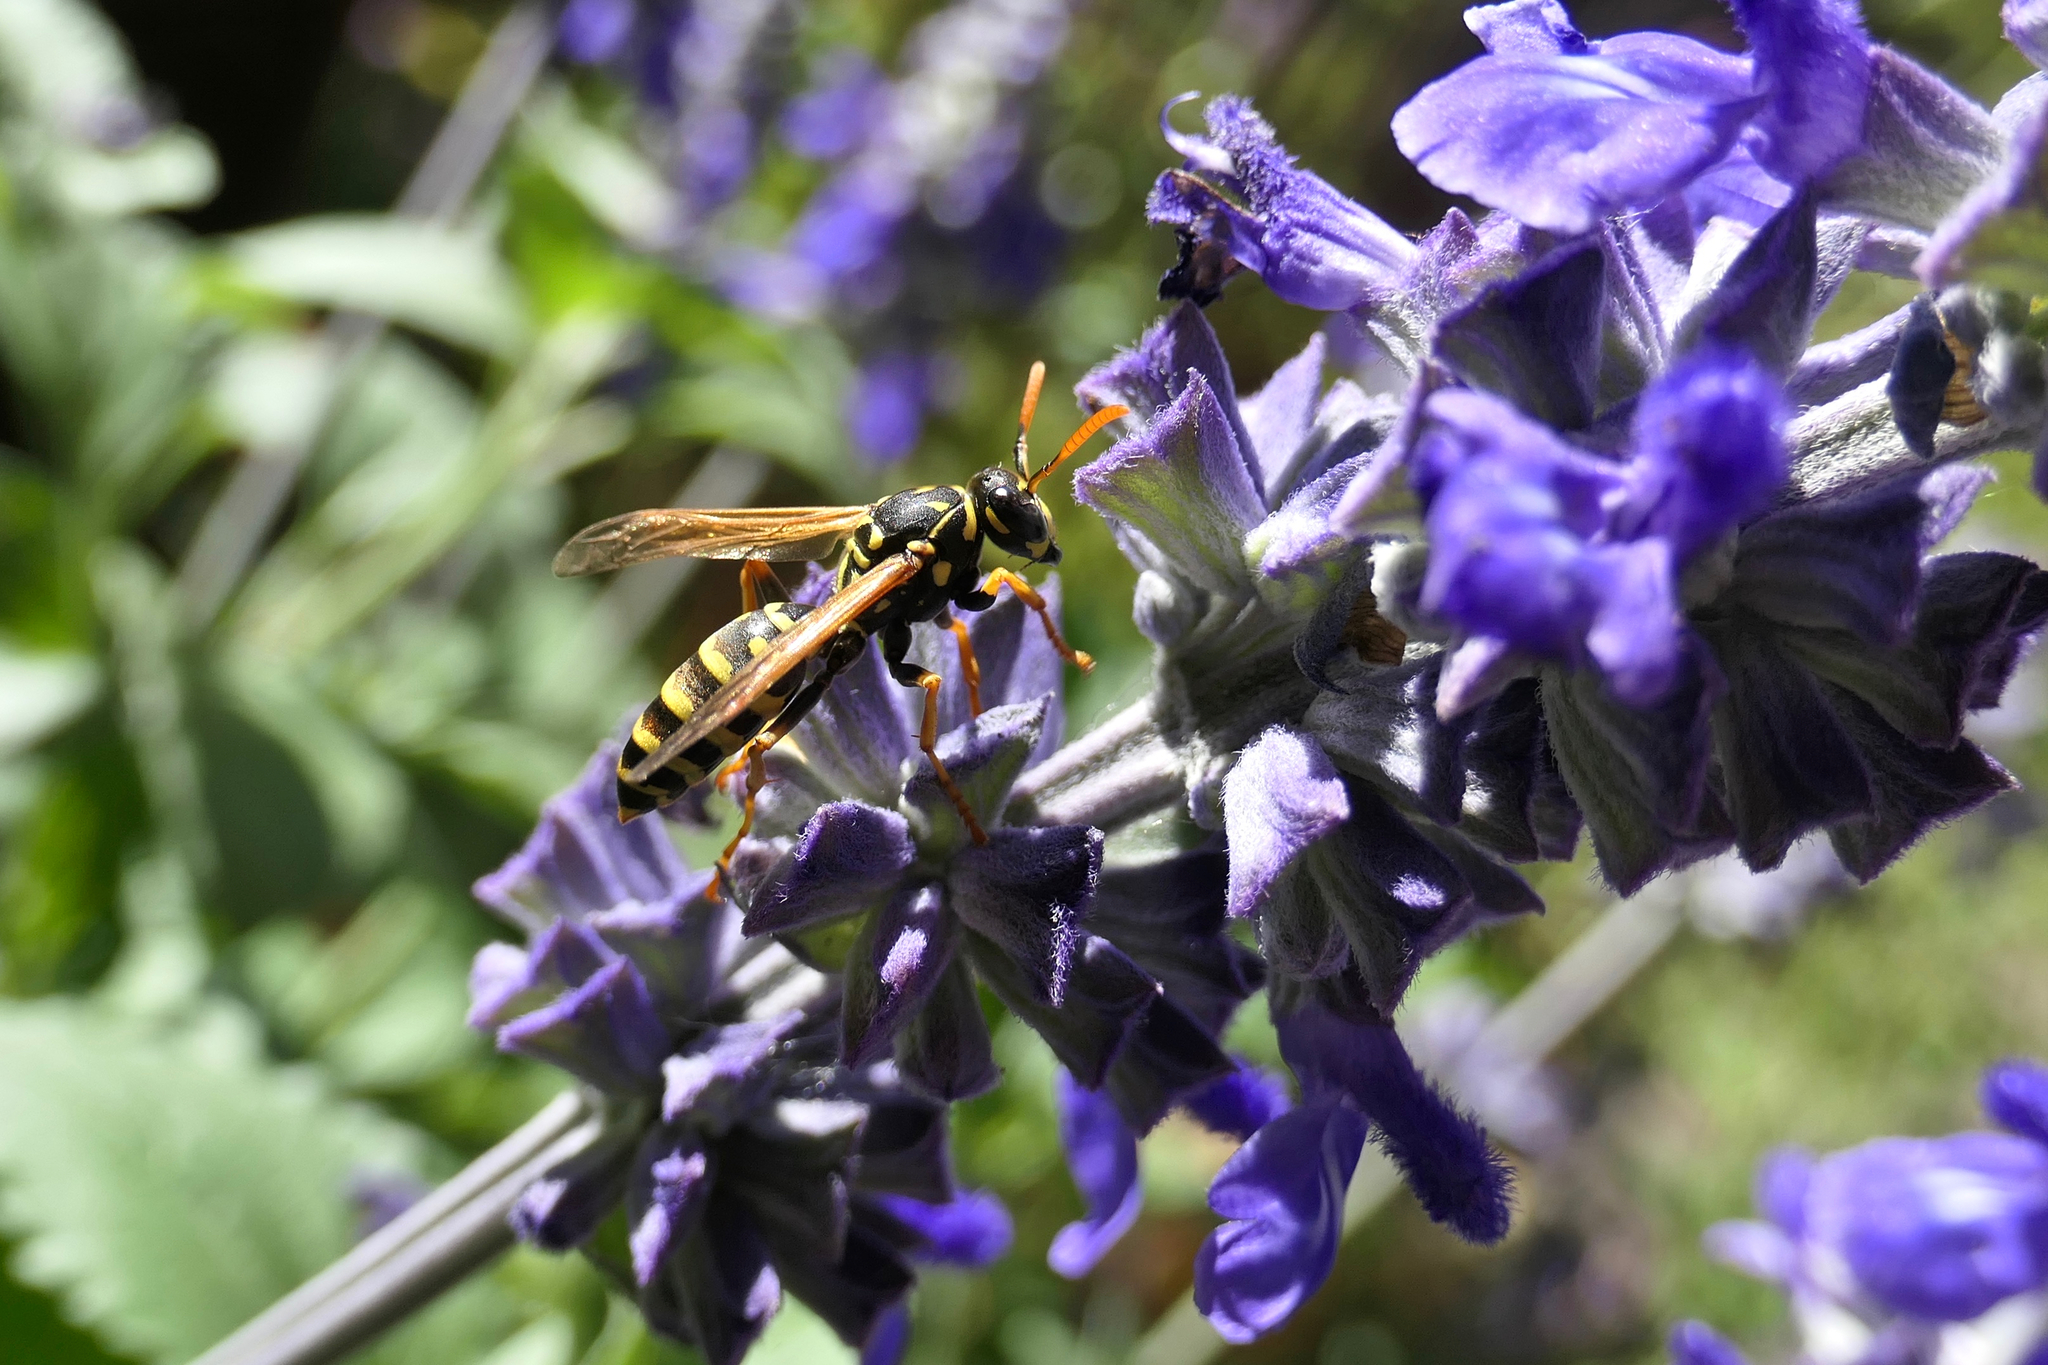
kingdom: Animalia
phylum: Arthropoda
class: Insecta
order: Hymenoptera
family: Eumenidae
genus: Polistes
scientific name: Polistes dominula
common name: Paper wasp
